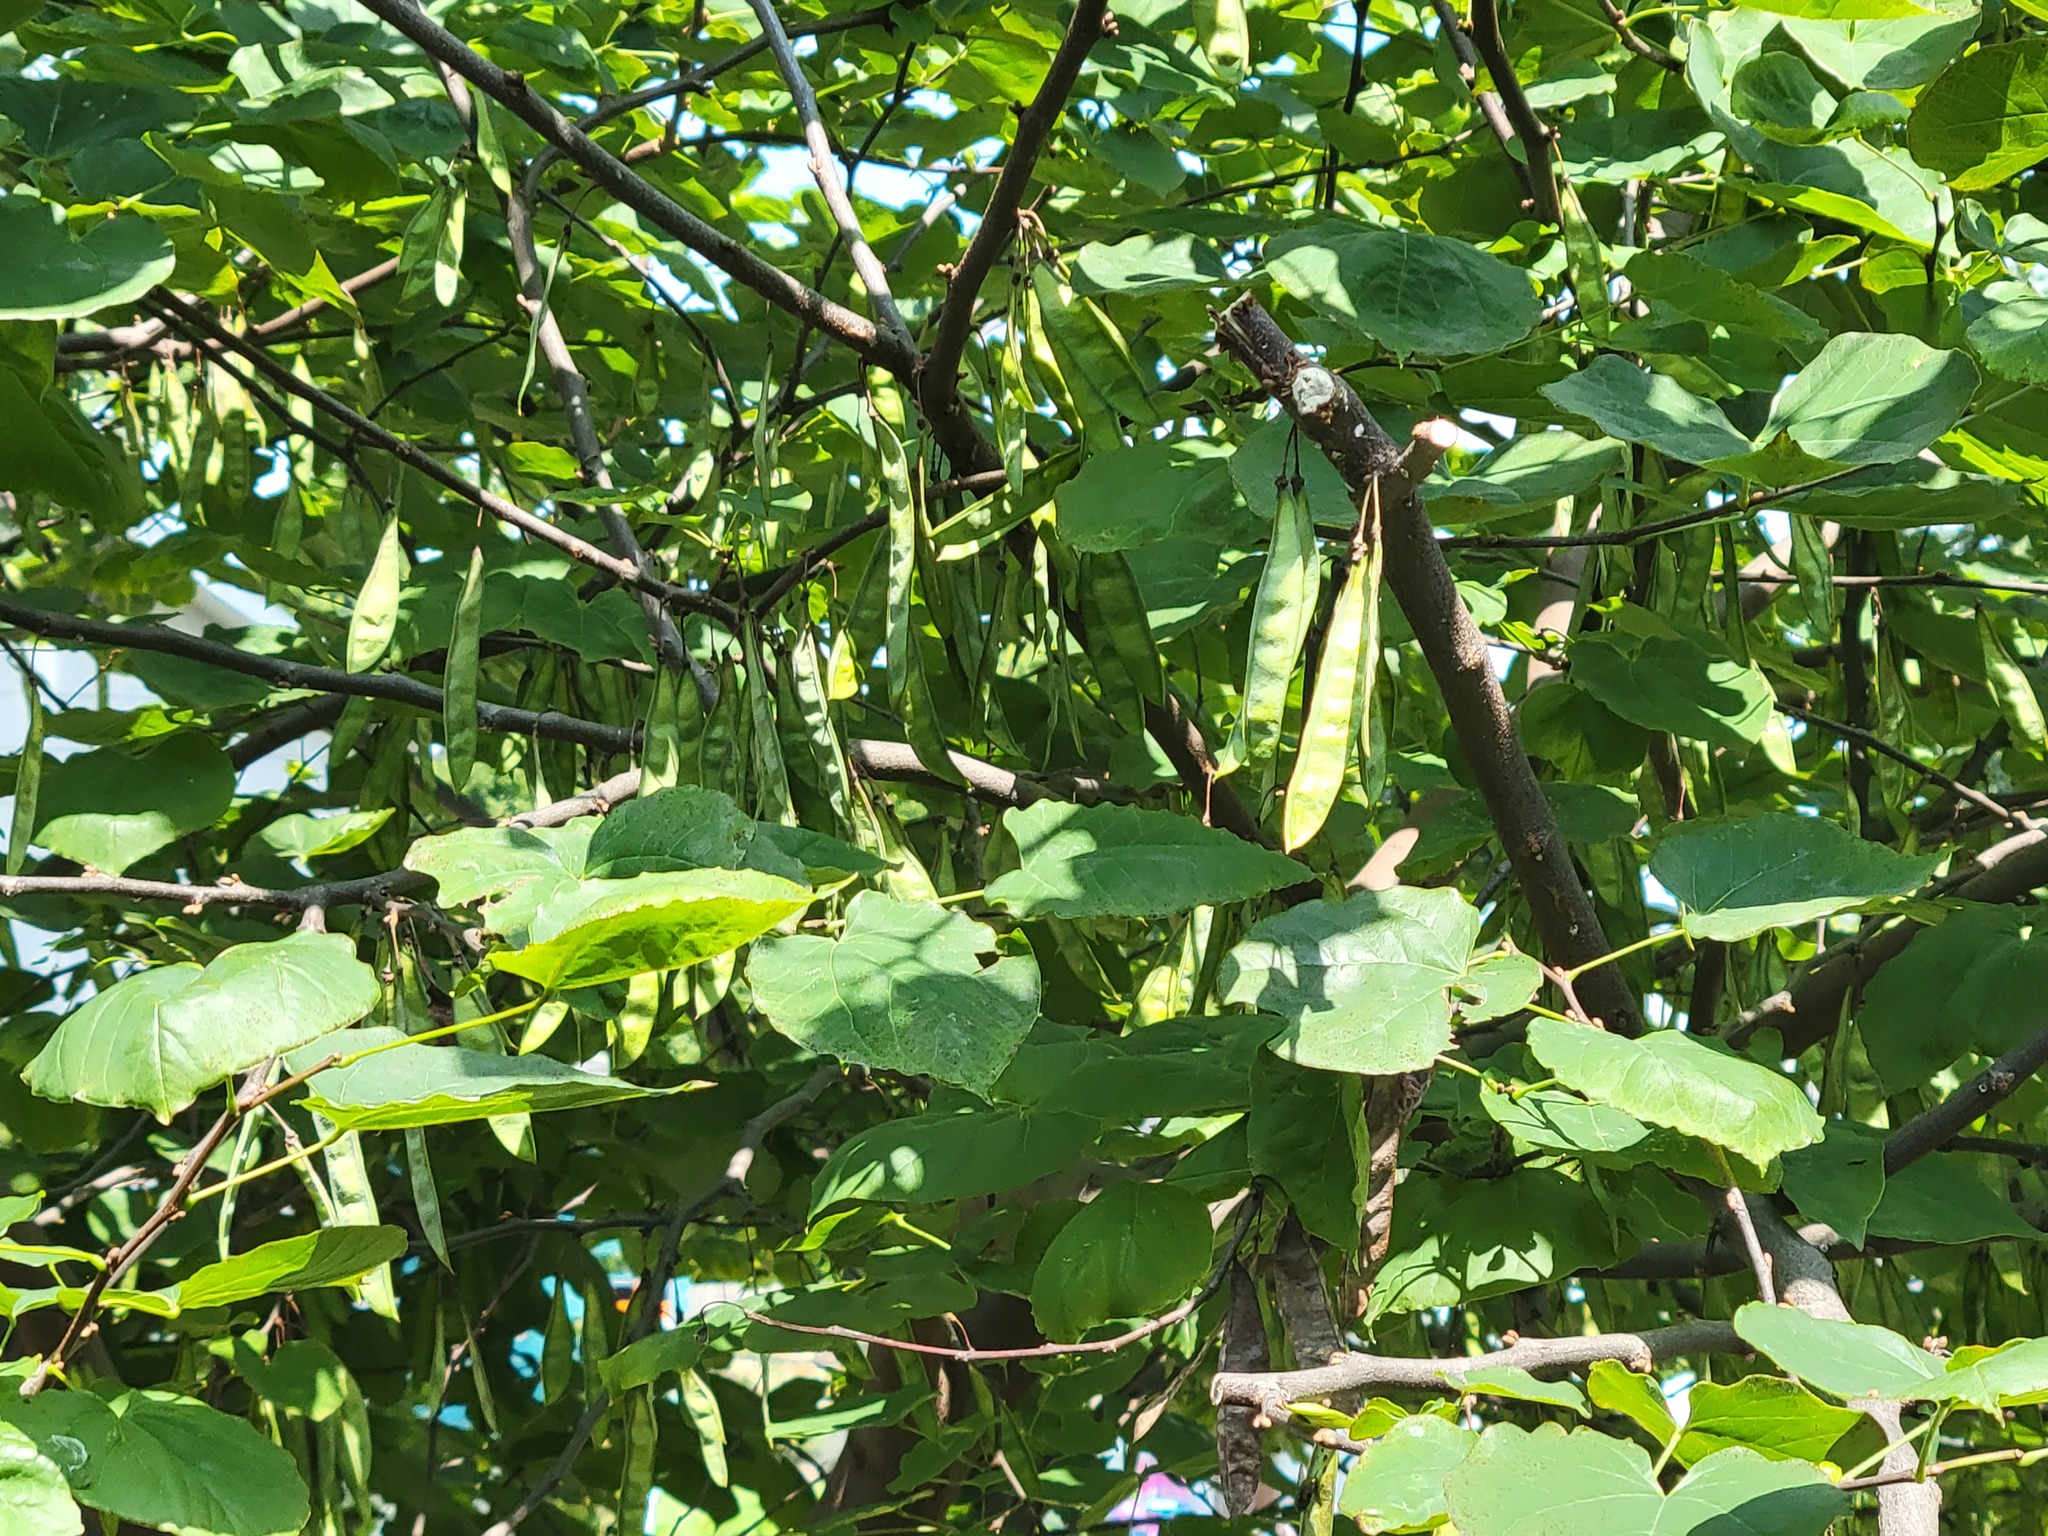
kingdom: Plantae
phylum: Tracheophyta
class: Magnoliopsida
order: Fabales
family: Fabaceae
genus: Cercis
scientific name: Cercis canadensis
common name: Eastern redbud
